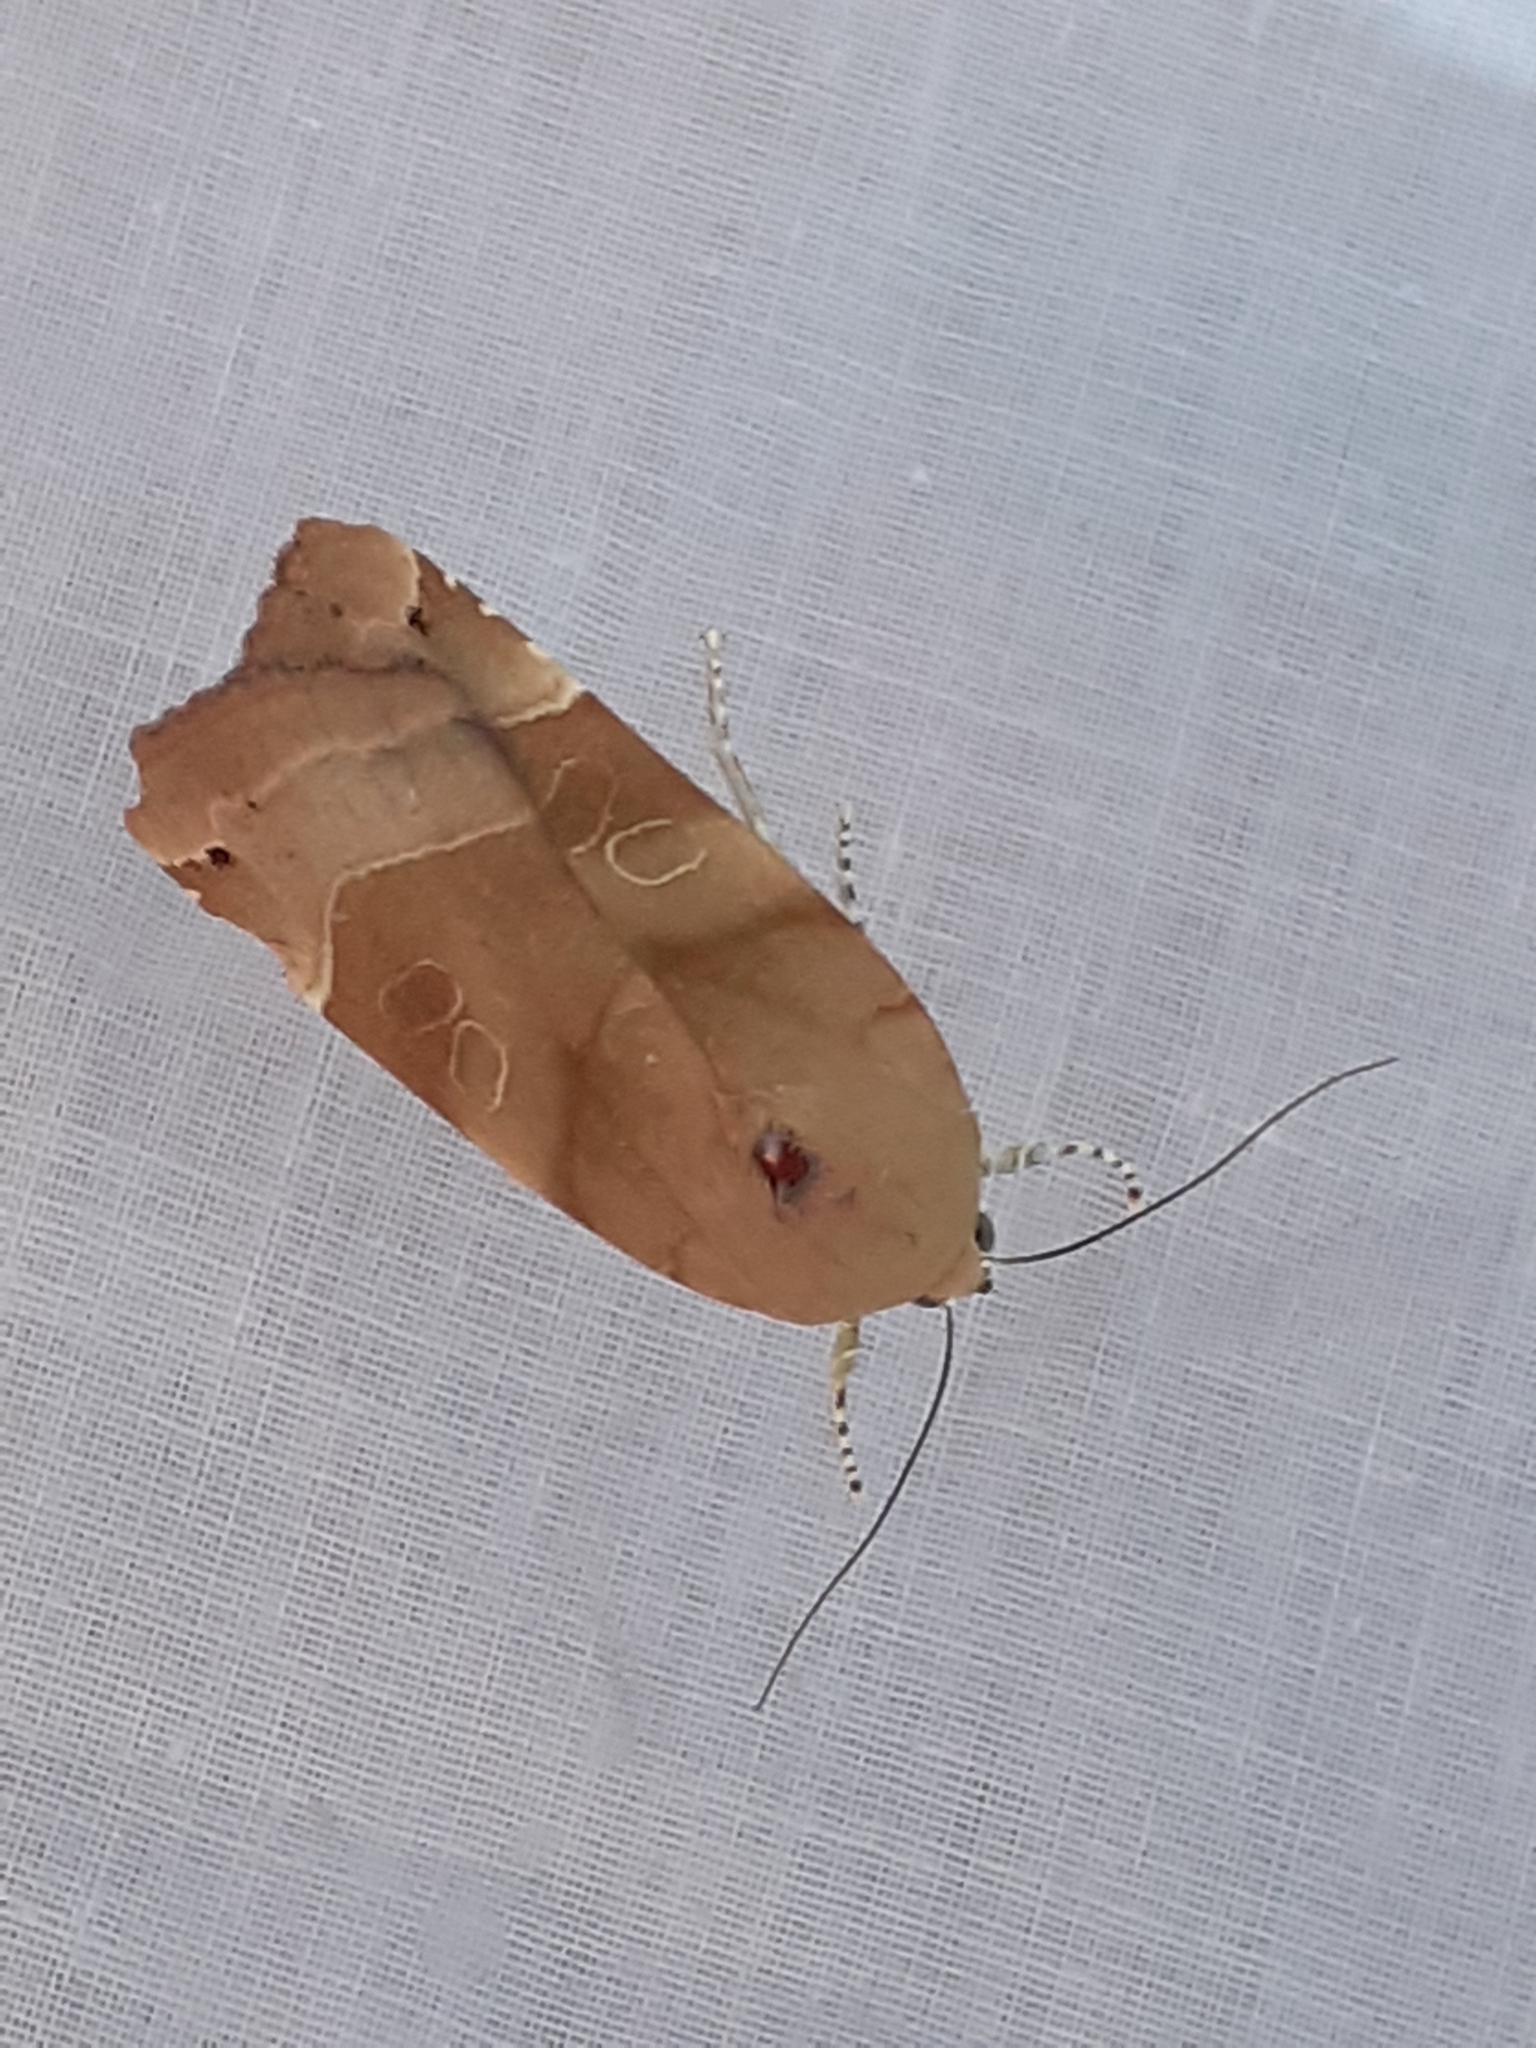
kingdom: Animalia
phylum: Arthropoda
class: Insecta
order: Lepidoptera
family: Noctuidae
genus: Noctua
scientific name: Noctua fimbriata
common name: Broad-bordered yellow underwing
